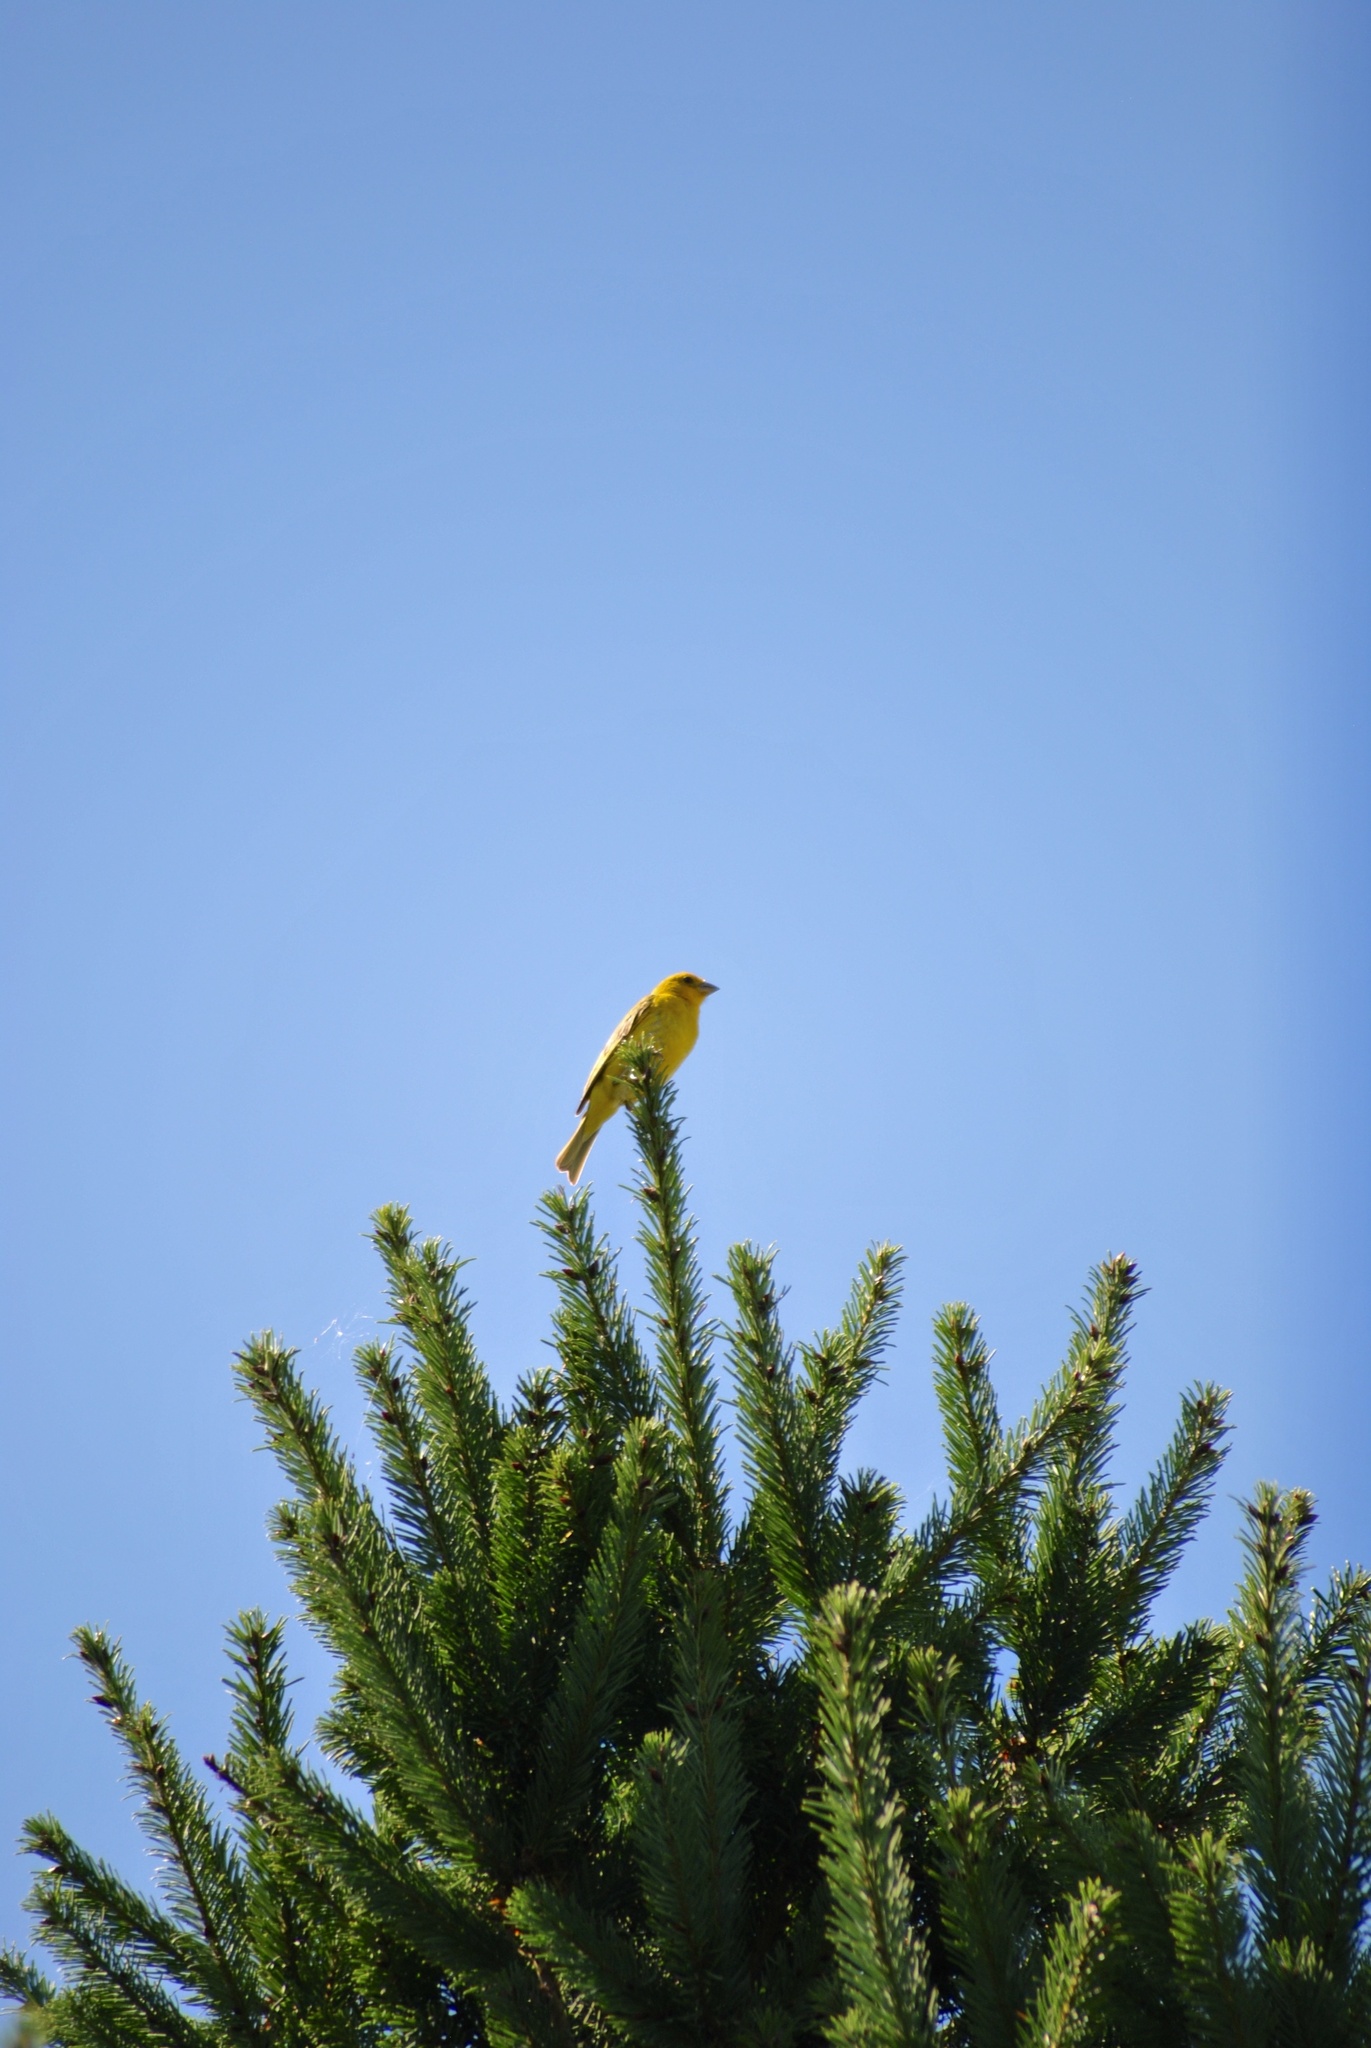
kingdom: Animalia
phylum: Chordata
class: Aves
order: Passeriformes
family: Thraupidae
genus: Sicalis
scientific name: Sicalis flaveola
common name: Saffron finch
